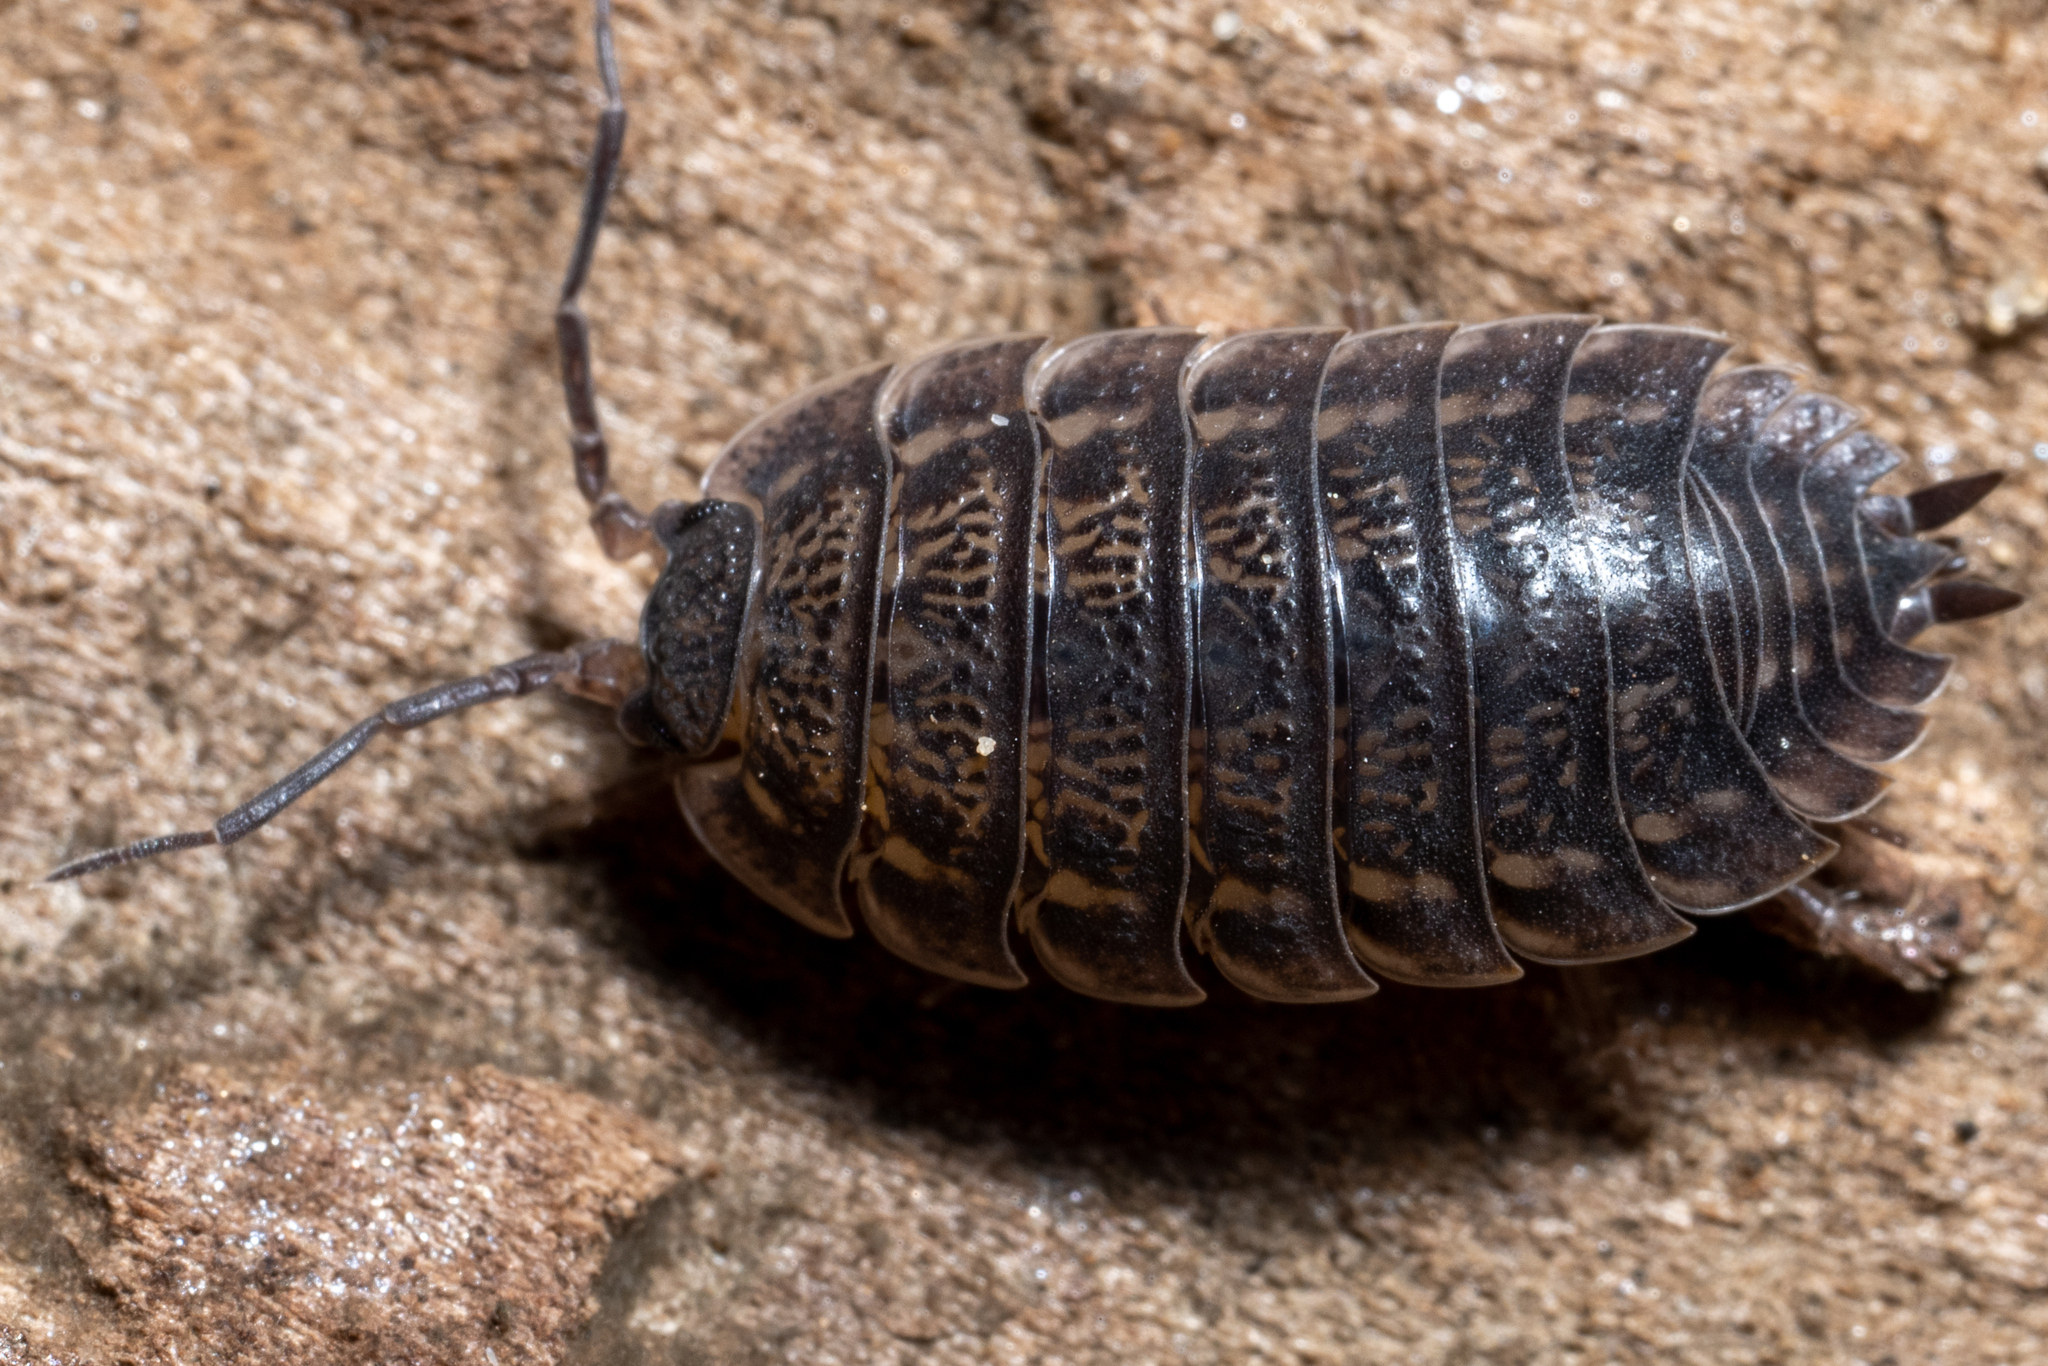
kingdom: Animalia
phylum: Arthropoda
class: Malacostraca
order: Isopoda
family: Trachelipodidae
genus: Trachelipus
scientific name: Trachelipus rathkii
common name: Isopod
